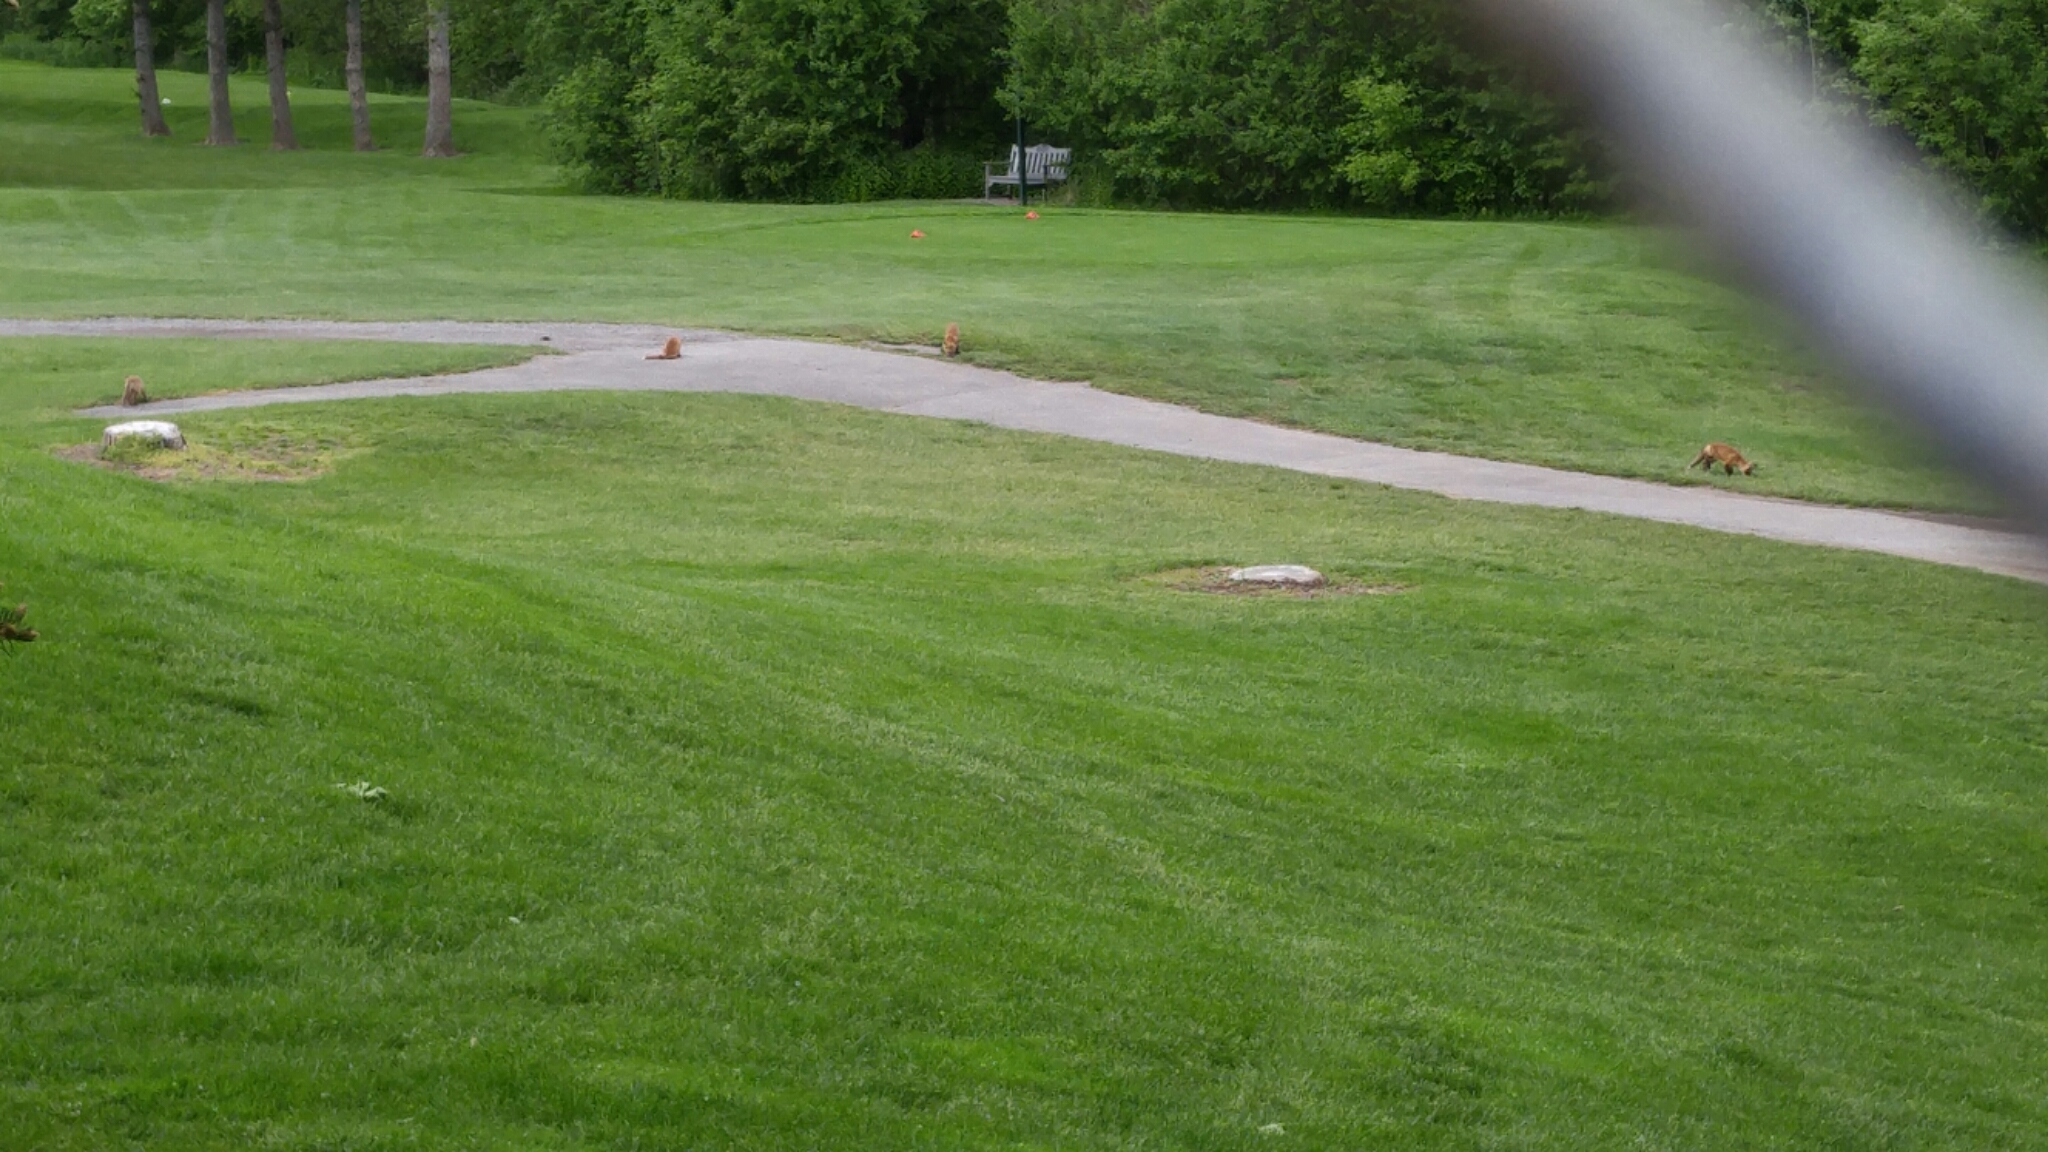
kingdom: Animalia
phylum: Chordata
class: Mammalia
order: Carnivora
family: Canidae
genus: Vulpes
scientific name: Vulpes vulpes
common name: Red fox
